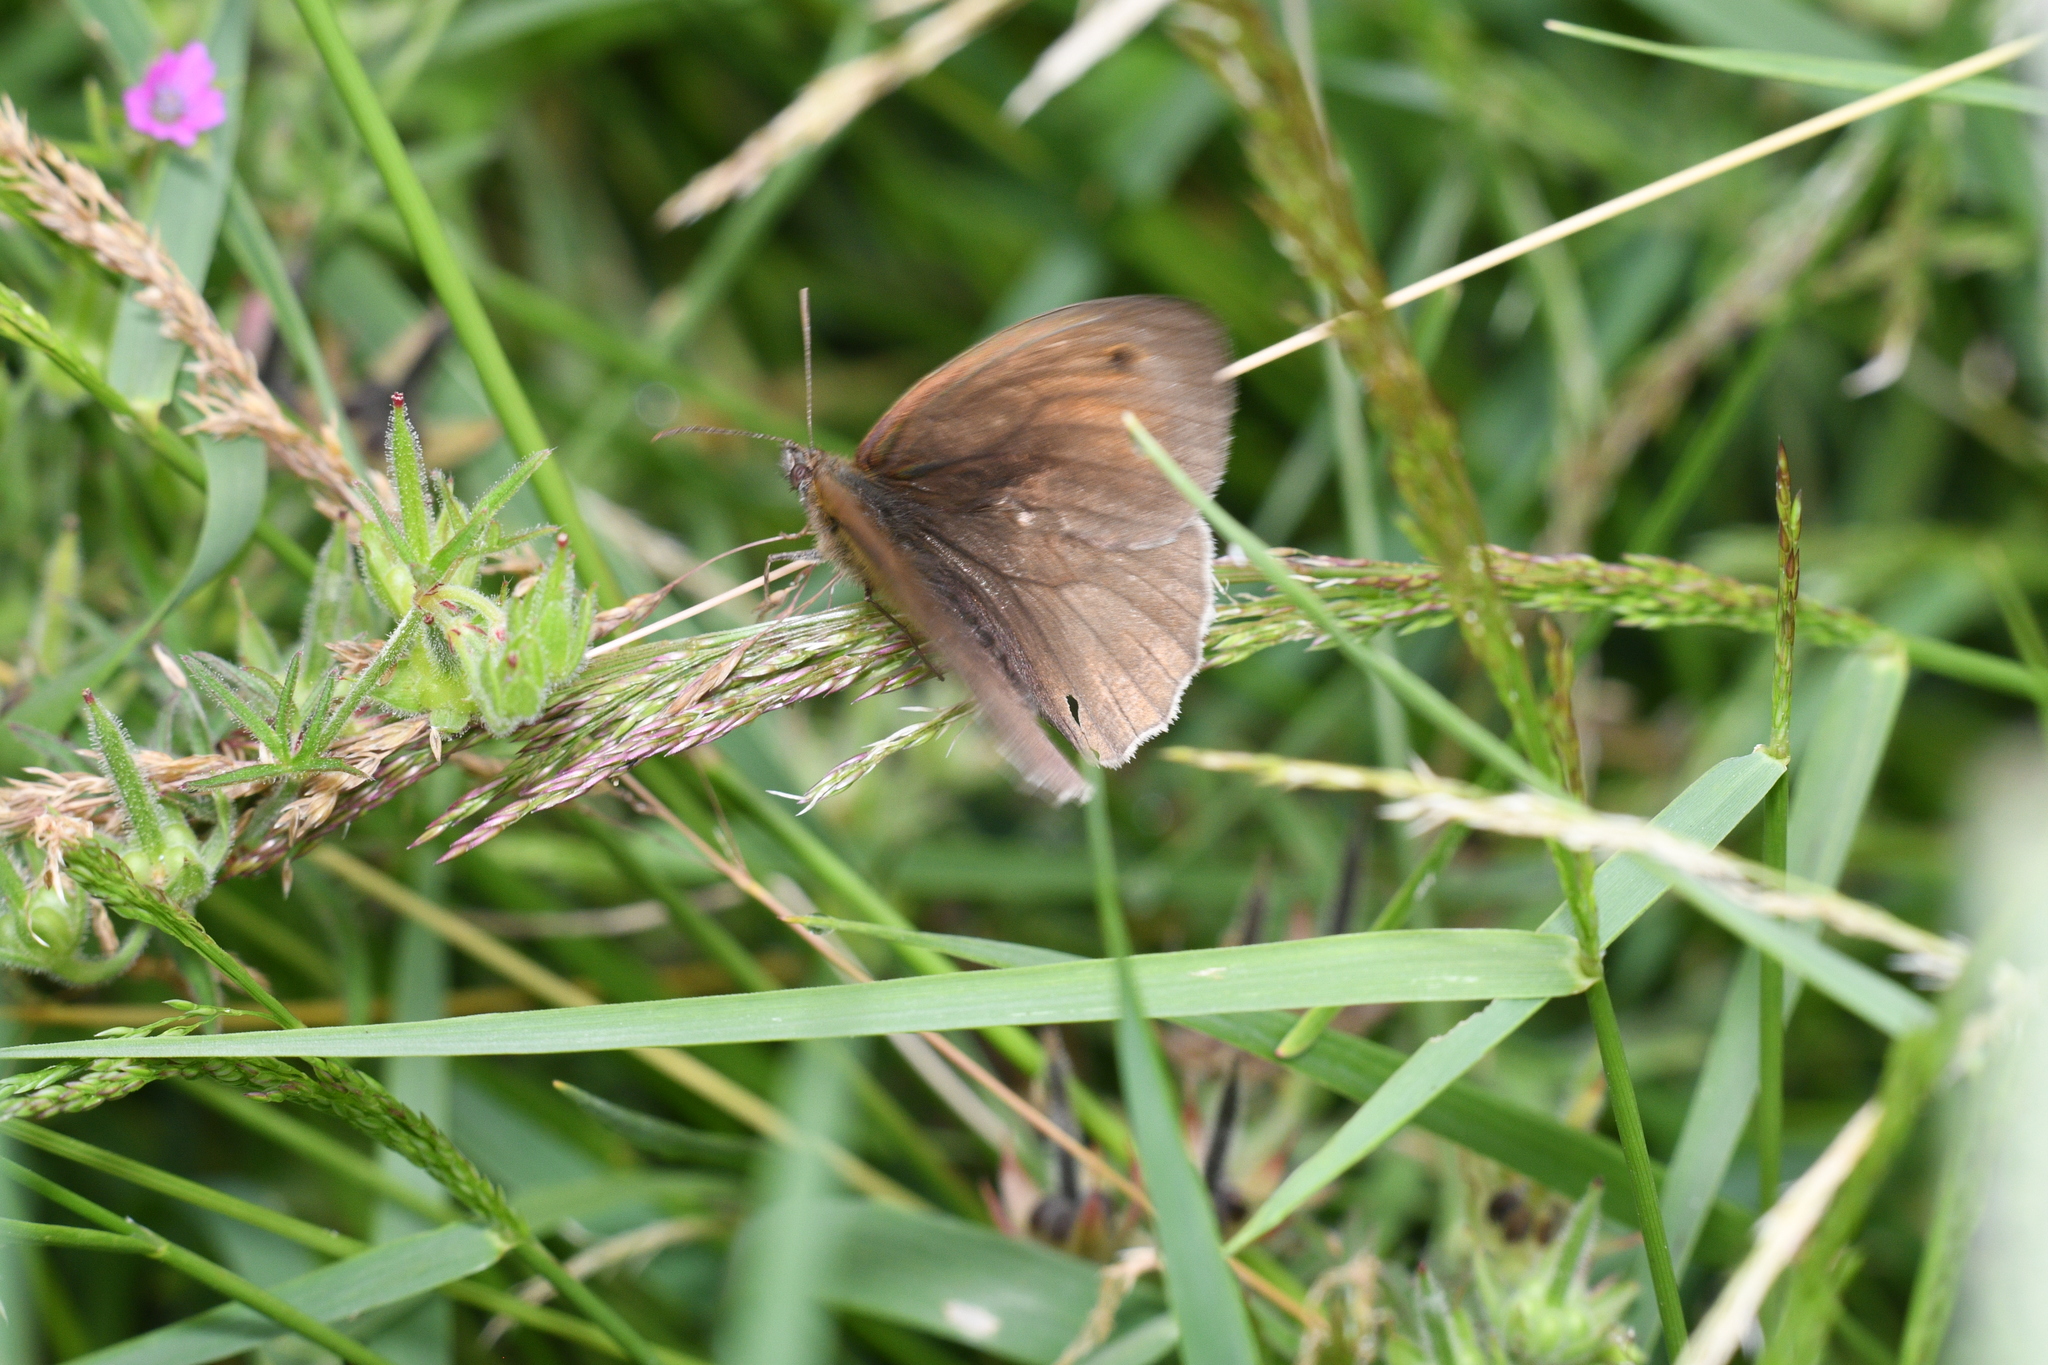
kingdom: Animalia
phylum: Arthropoda
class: Insecta
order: Lepidoptera
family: Nymphalidae
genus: Maniola
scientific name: Maniola jurtina
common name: Meadow brown
